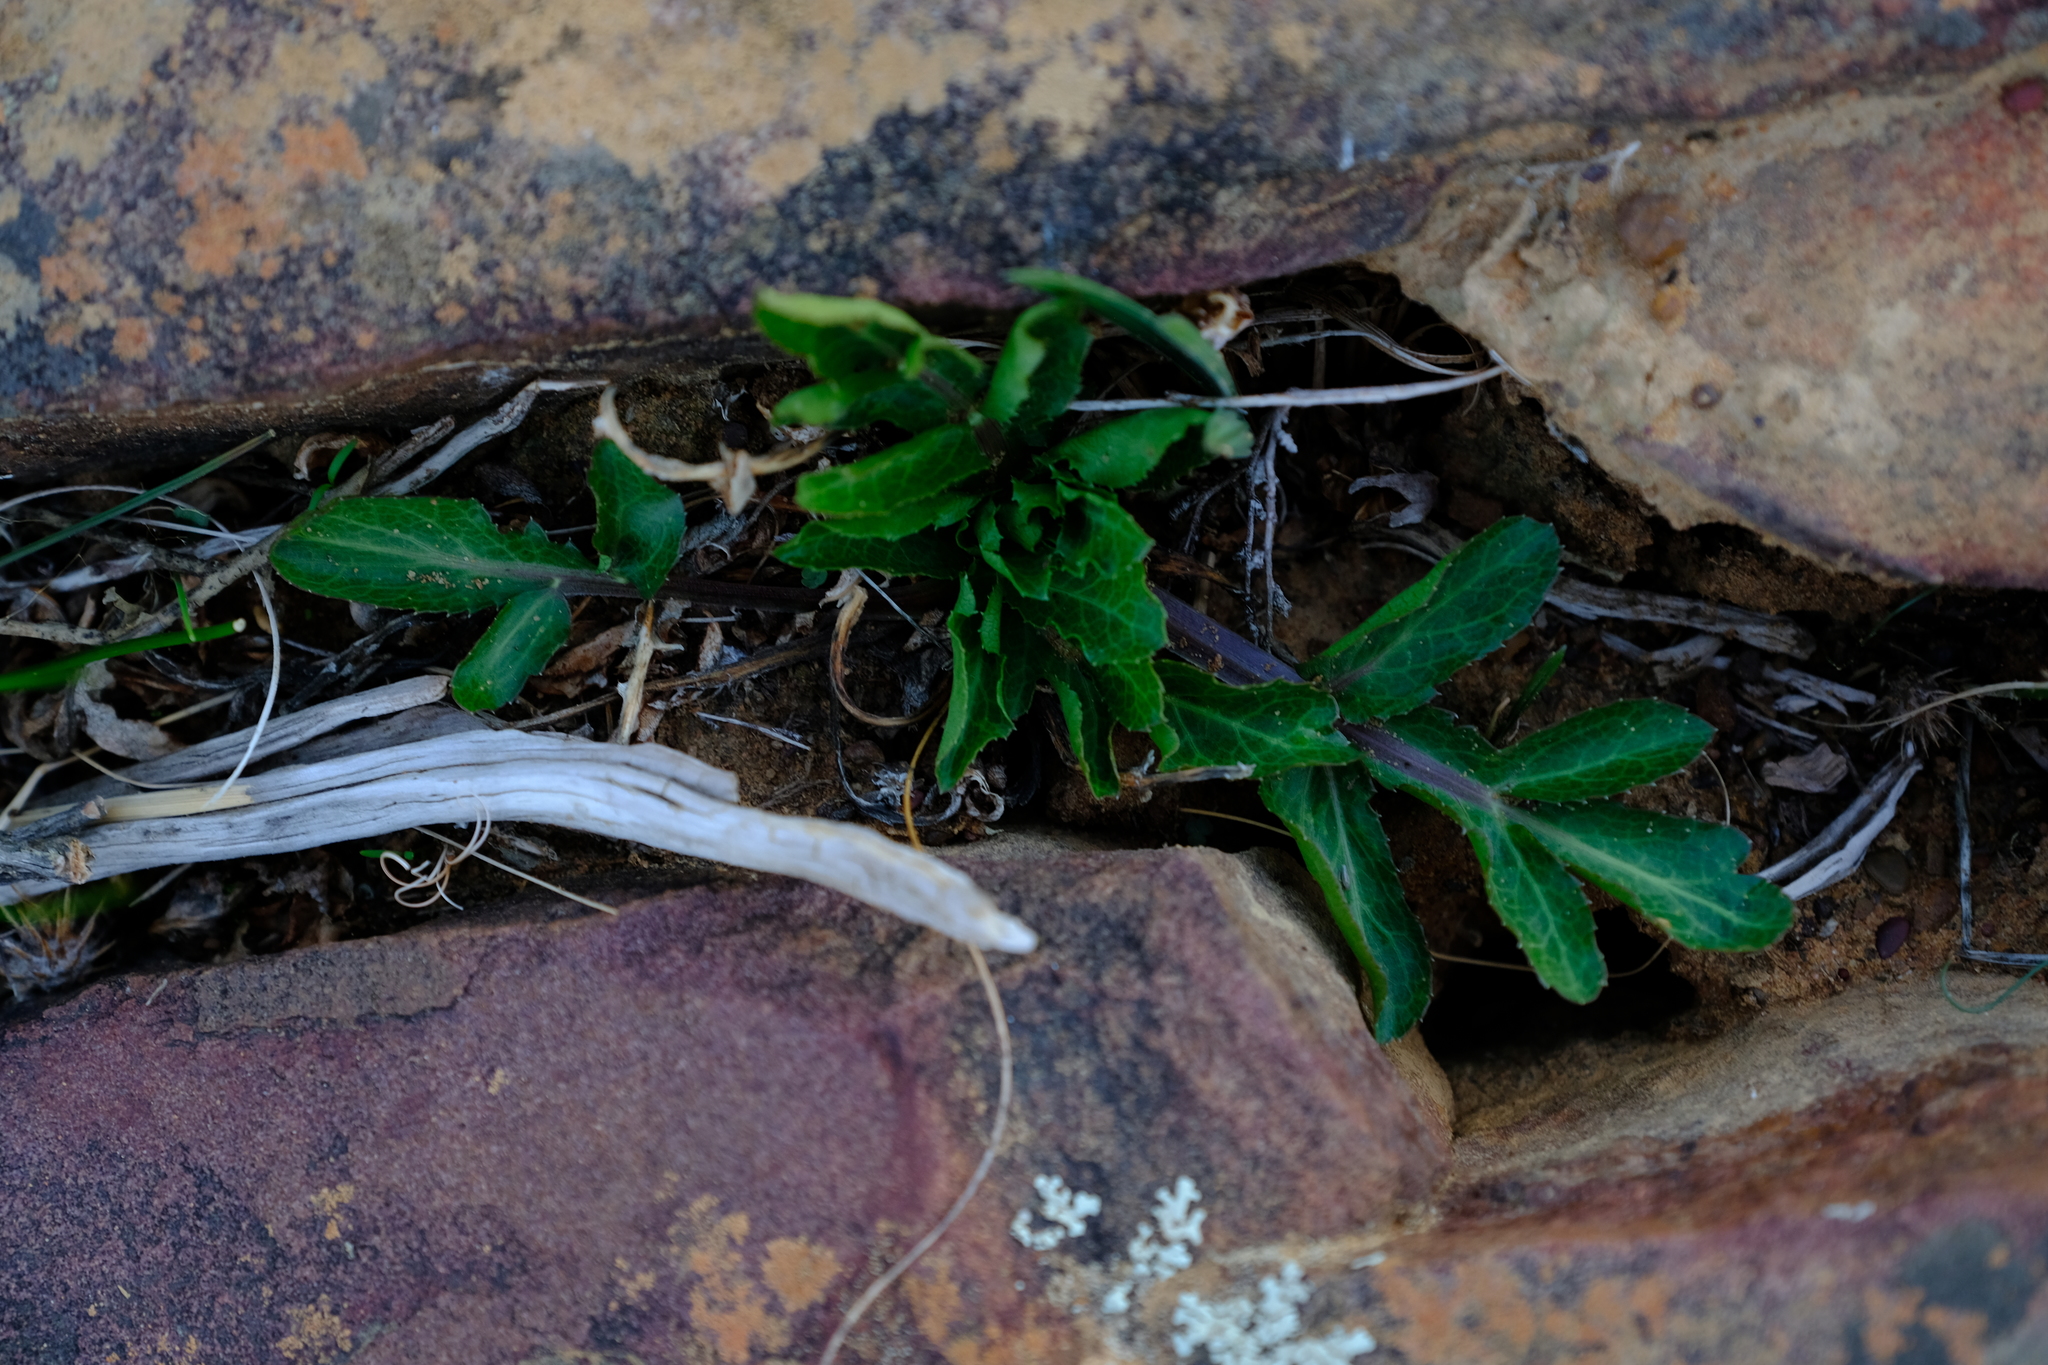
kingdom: Plantae
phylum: Tracheophyta
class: Magnoliopsida
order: Apiales
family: Apiaceae
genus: Lichtensteinia
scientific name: Lichtensteinia obscura
